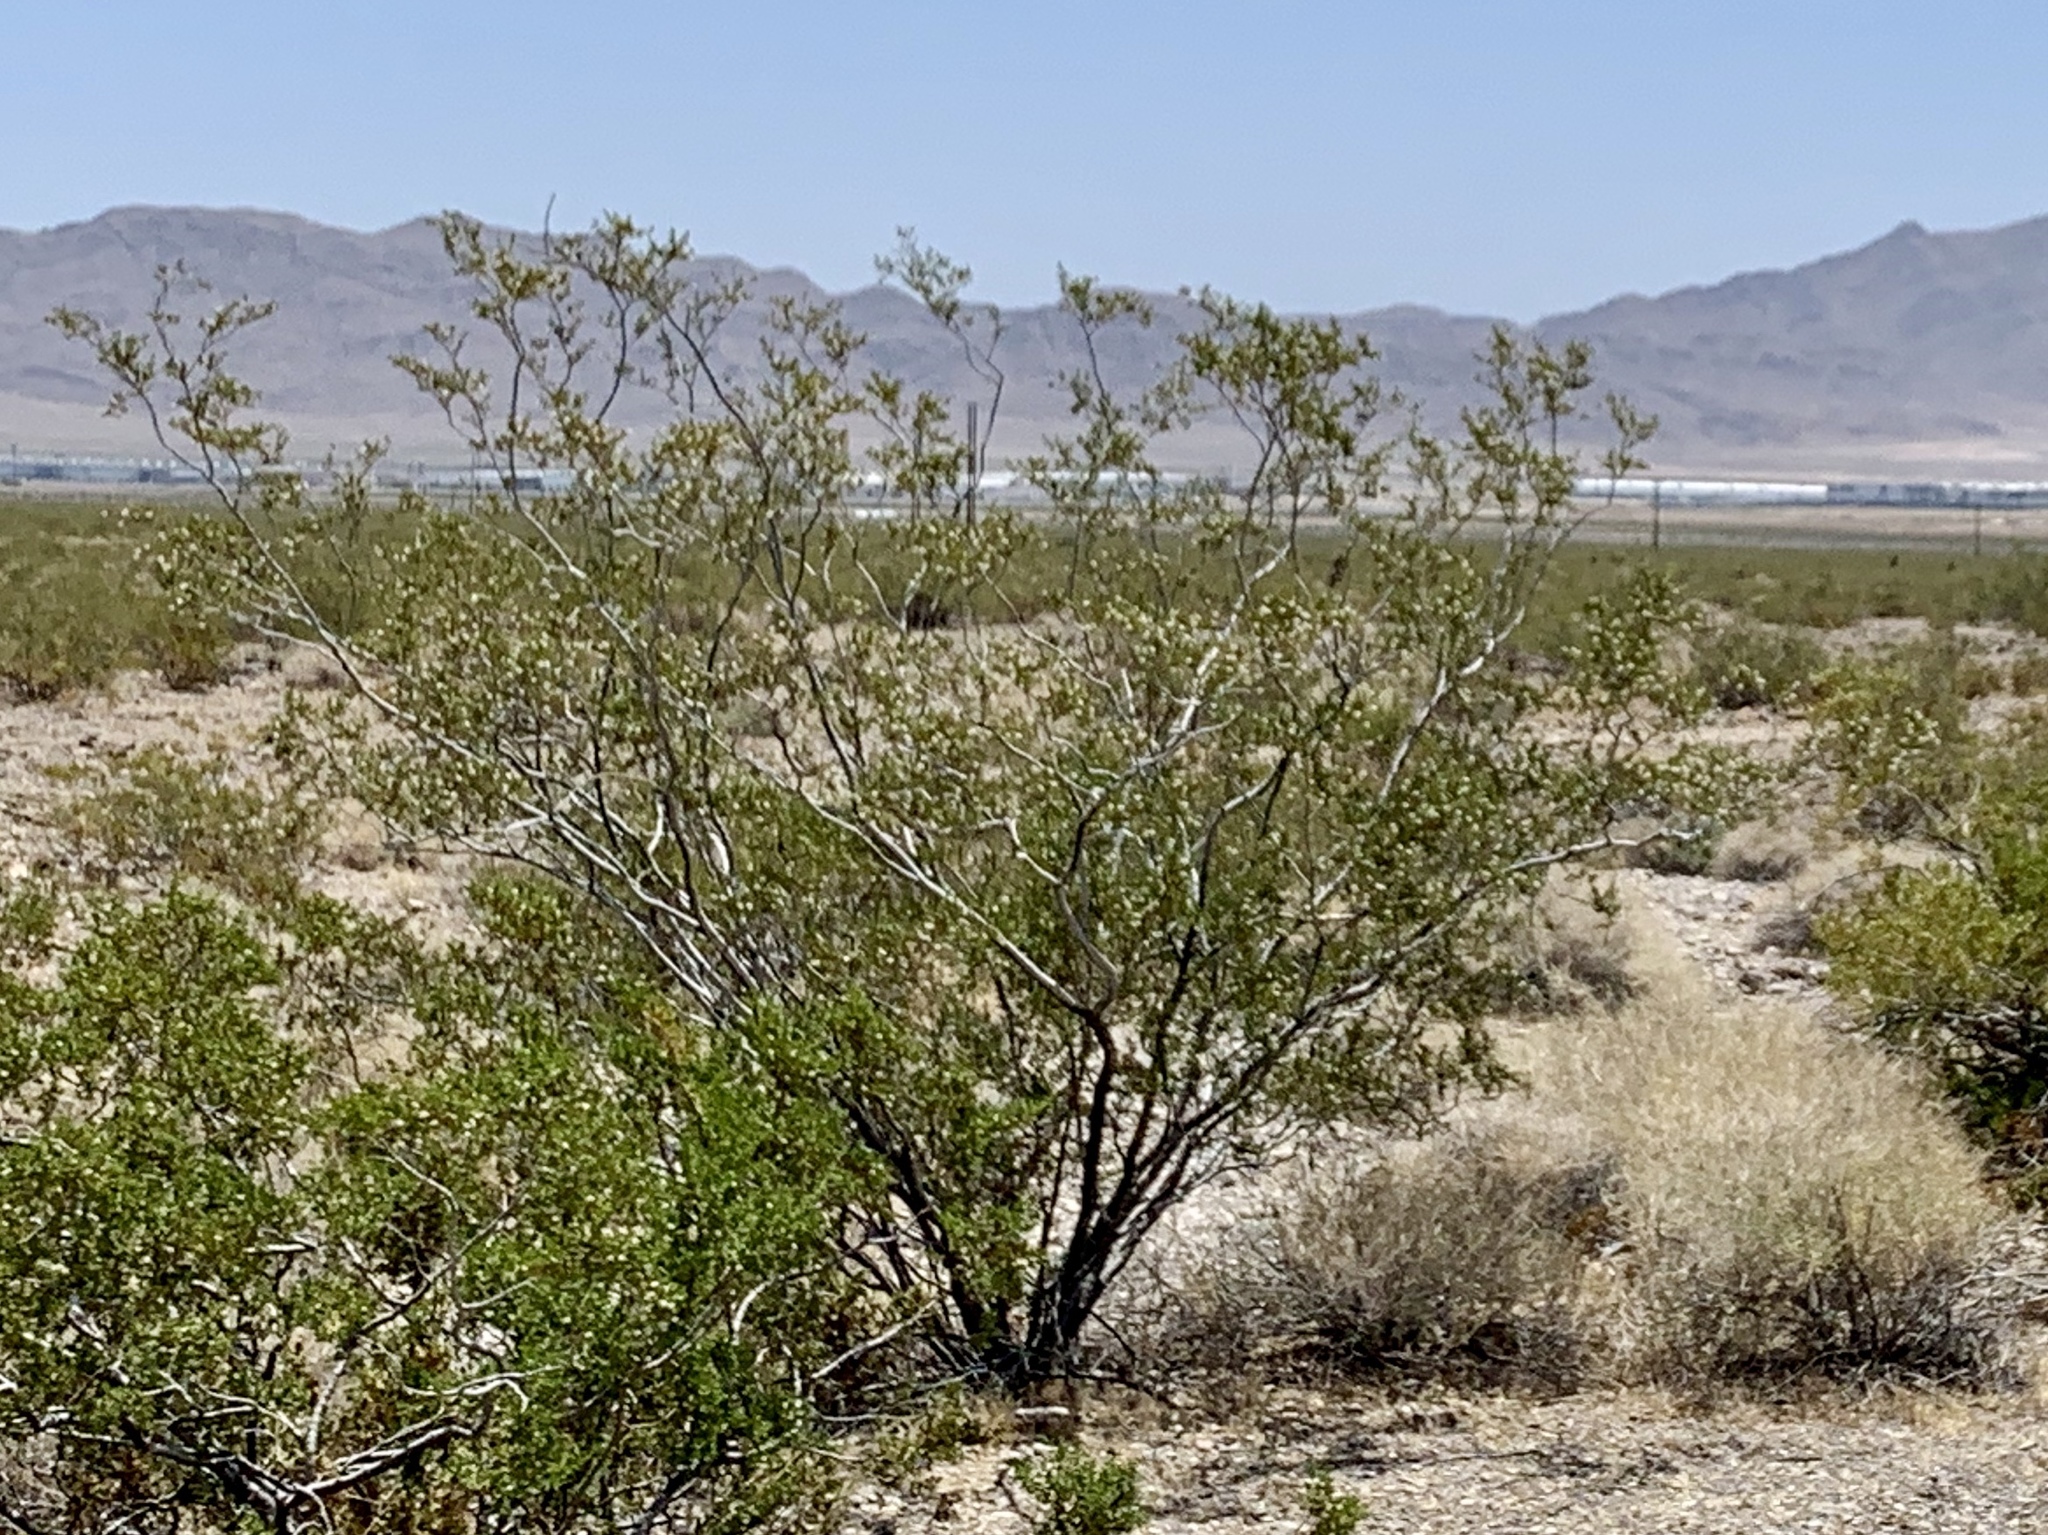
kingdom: Plantae
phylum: Tracheophyta
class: Magnoliopsida
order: Zygophyllales
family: Zygophyllaceae
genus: Larrea
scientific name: Larrea tridentata
